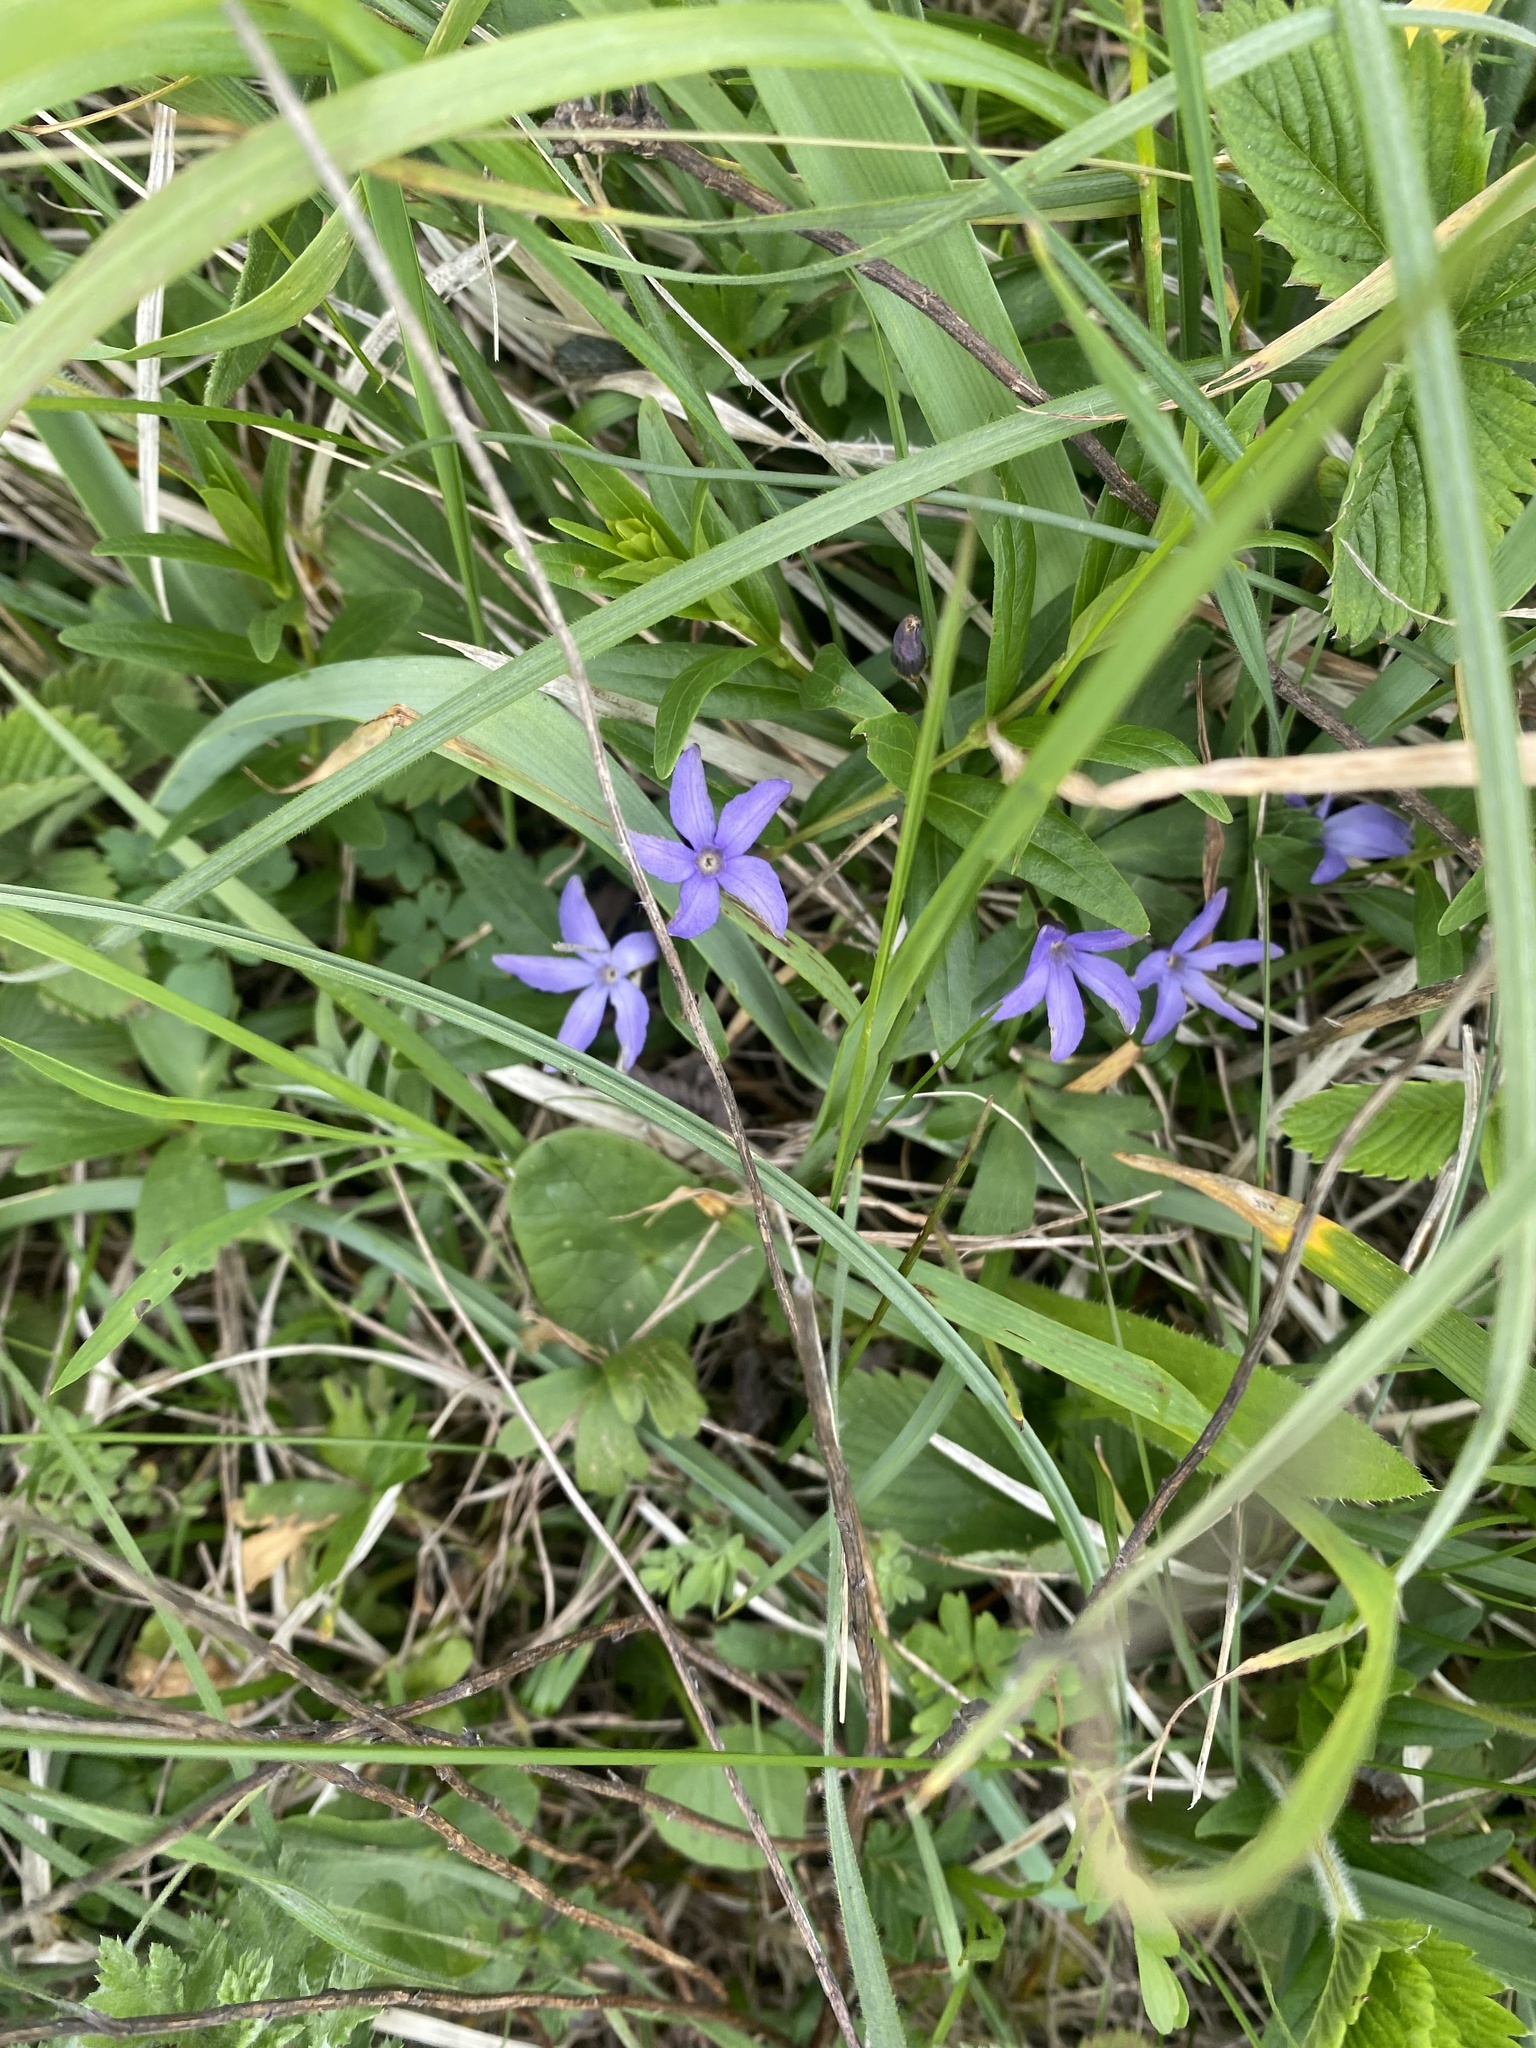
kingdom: Plantae
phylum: Tracheophyta
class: Magnoliopsida
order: Gentianales
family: Apocynaceae
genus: Vinca
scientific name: Vinca herbacea
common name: Herbaceous periwinkle
